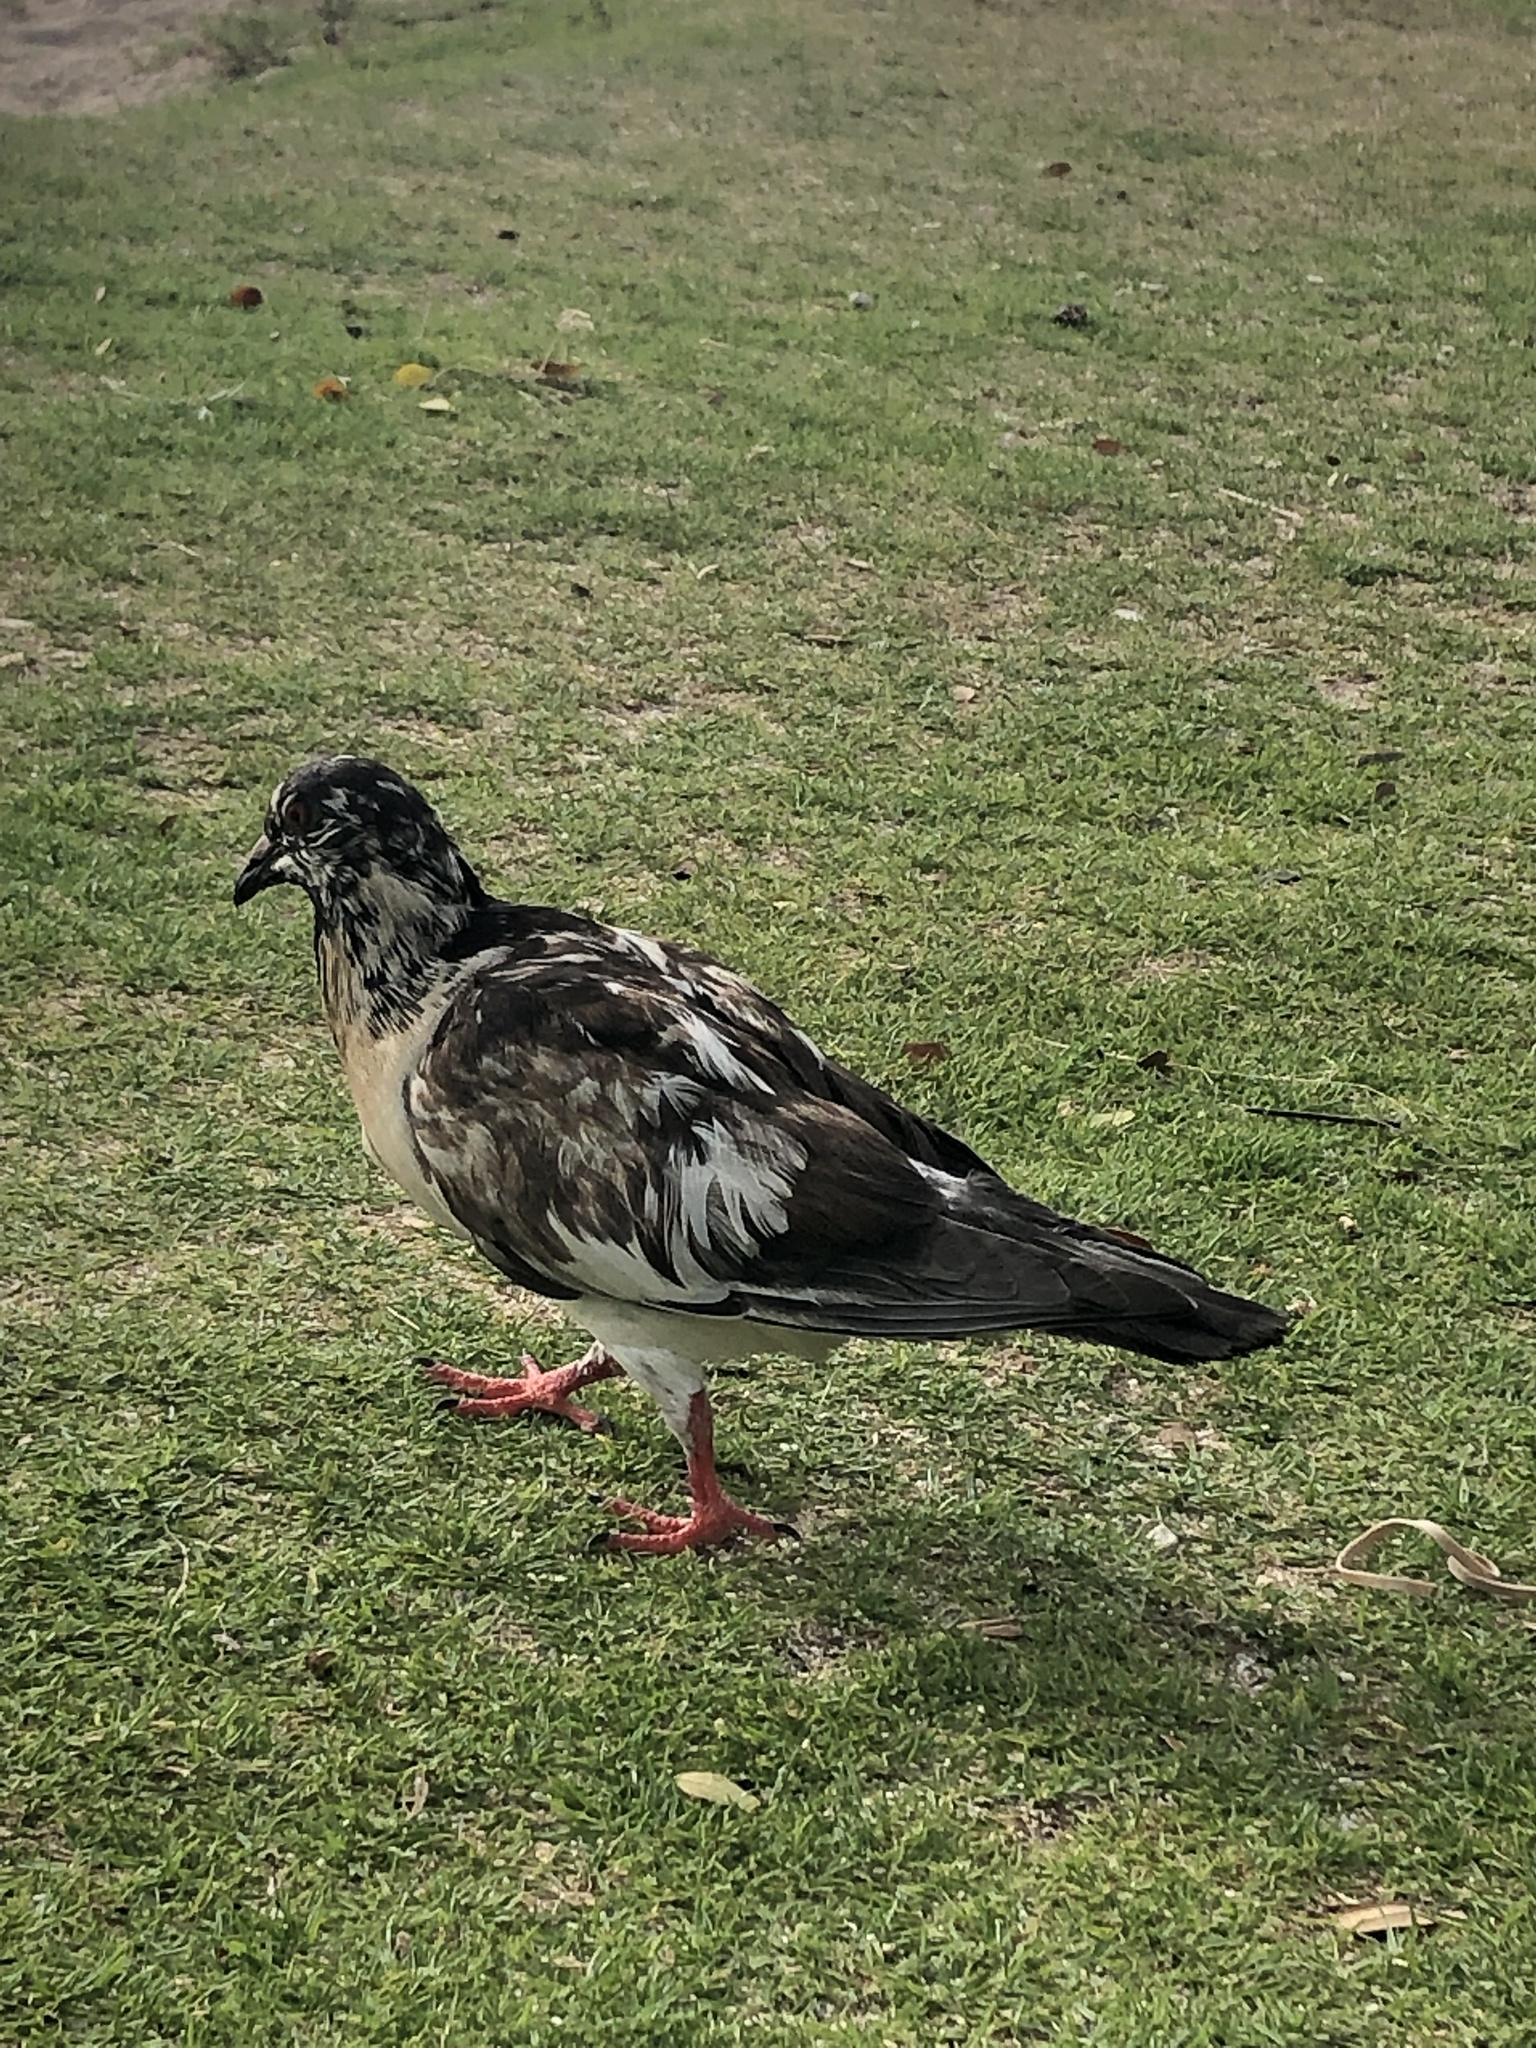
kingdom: Animalia
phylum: Chordata
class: Aves
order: Columbiformes
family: Columbidae
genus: Columba
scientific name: Columba livia
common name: Rock pigeon
